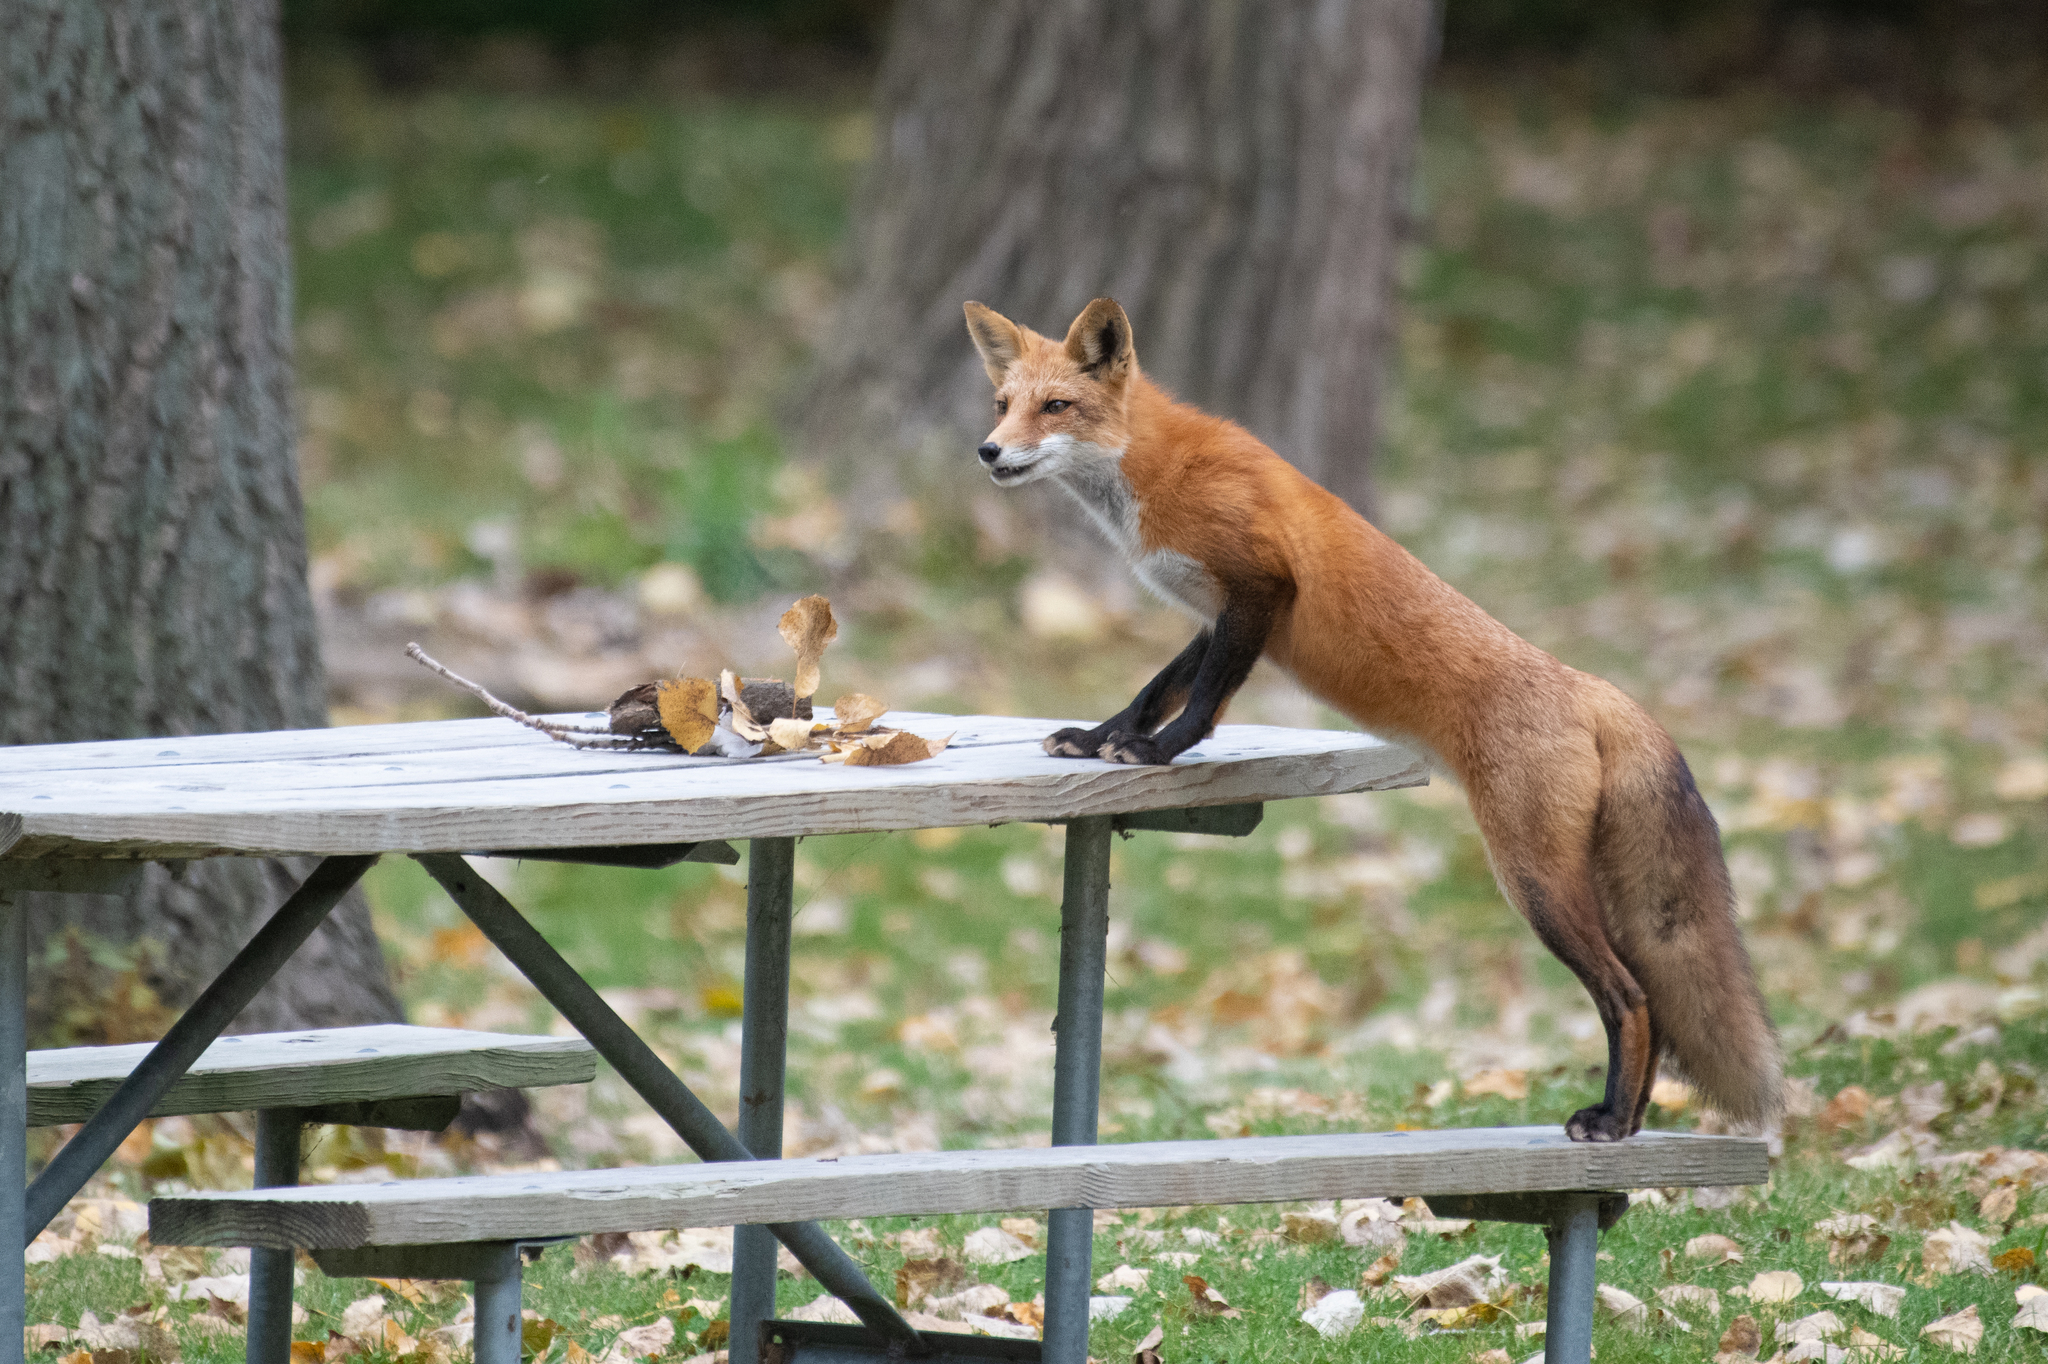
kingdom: Animalia
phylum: Chordata
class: Mammalia
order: Carnivora
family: Canidae
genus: Vulpes
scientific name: Vulpes vulpes
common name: Red fox
